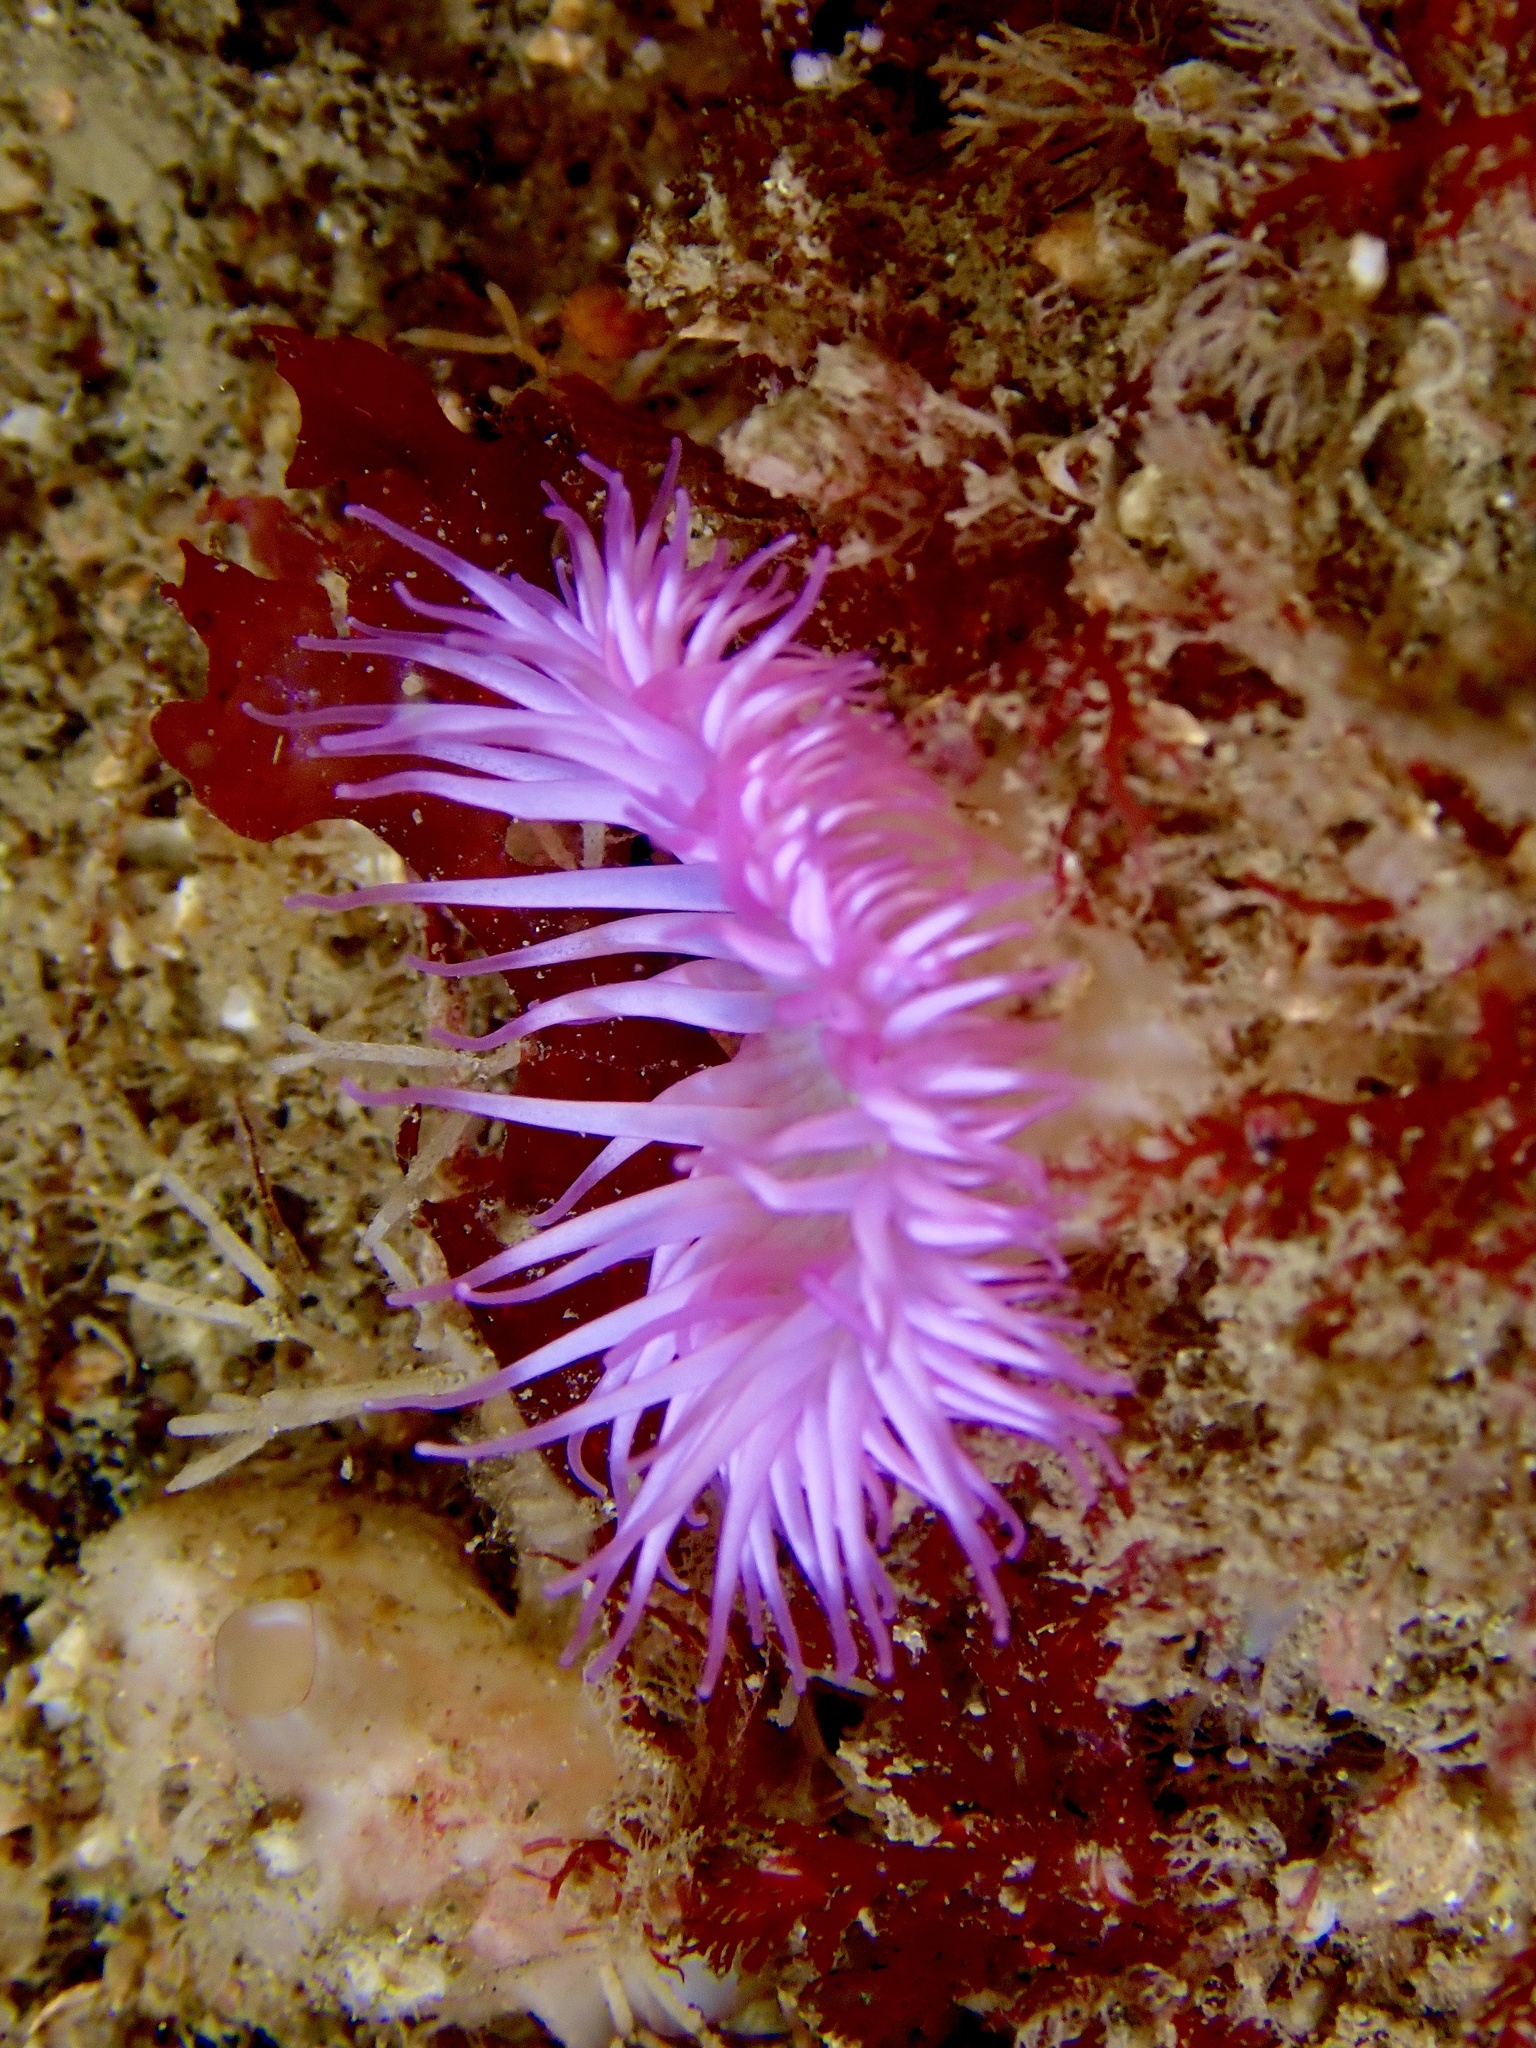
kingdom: Animalia
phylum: Cnidaria
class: Anthozoa
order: Actiniaria
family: Sagartiidae
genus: Cylista
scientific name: Cylista elegans
